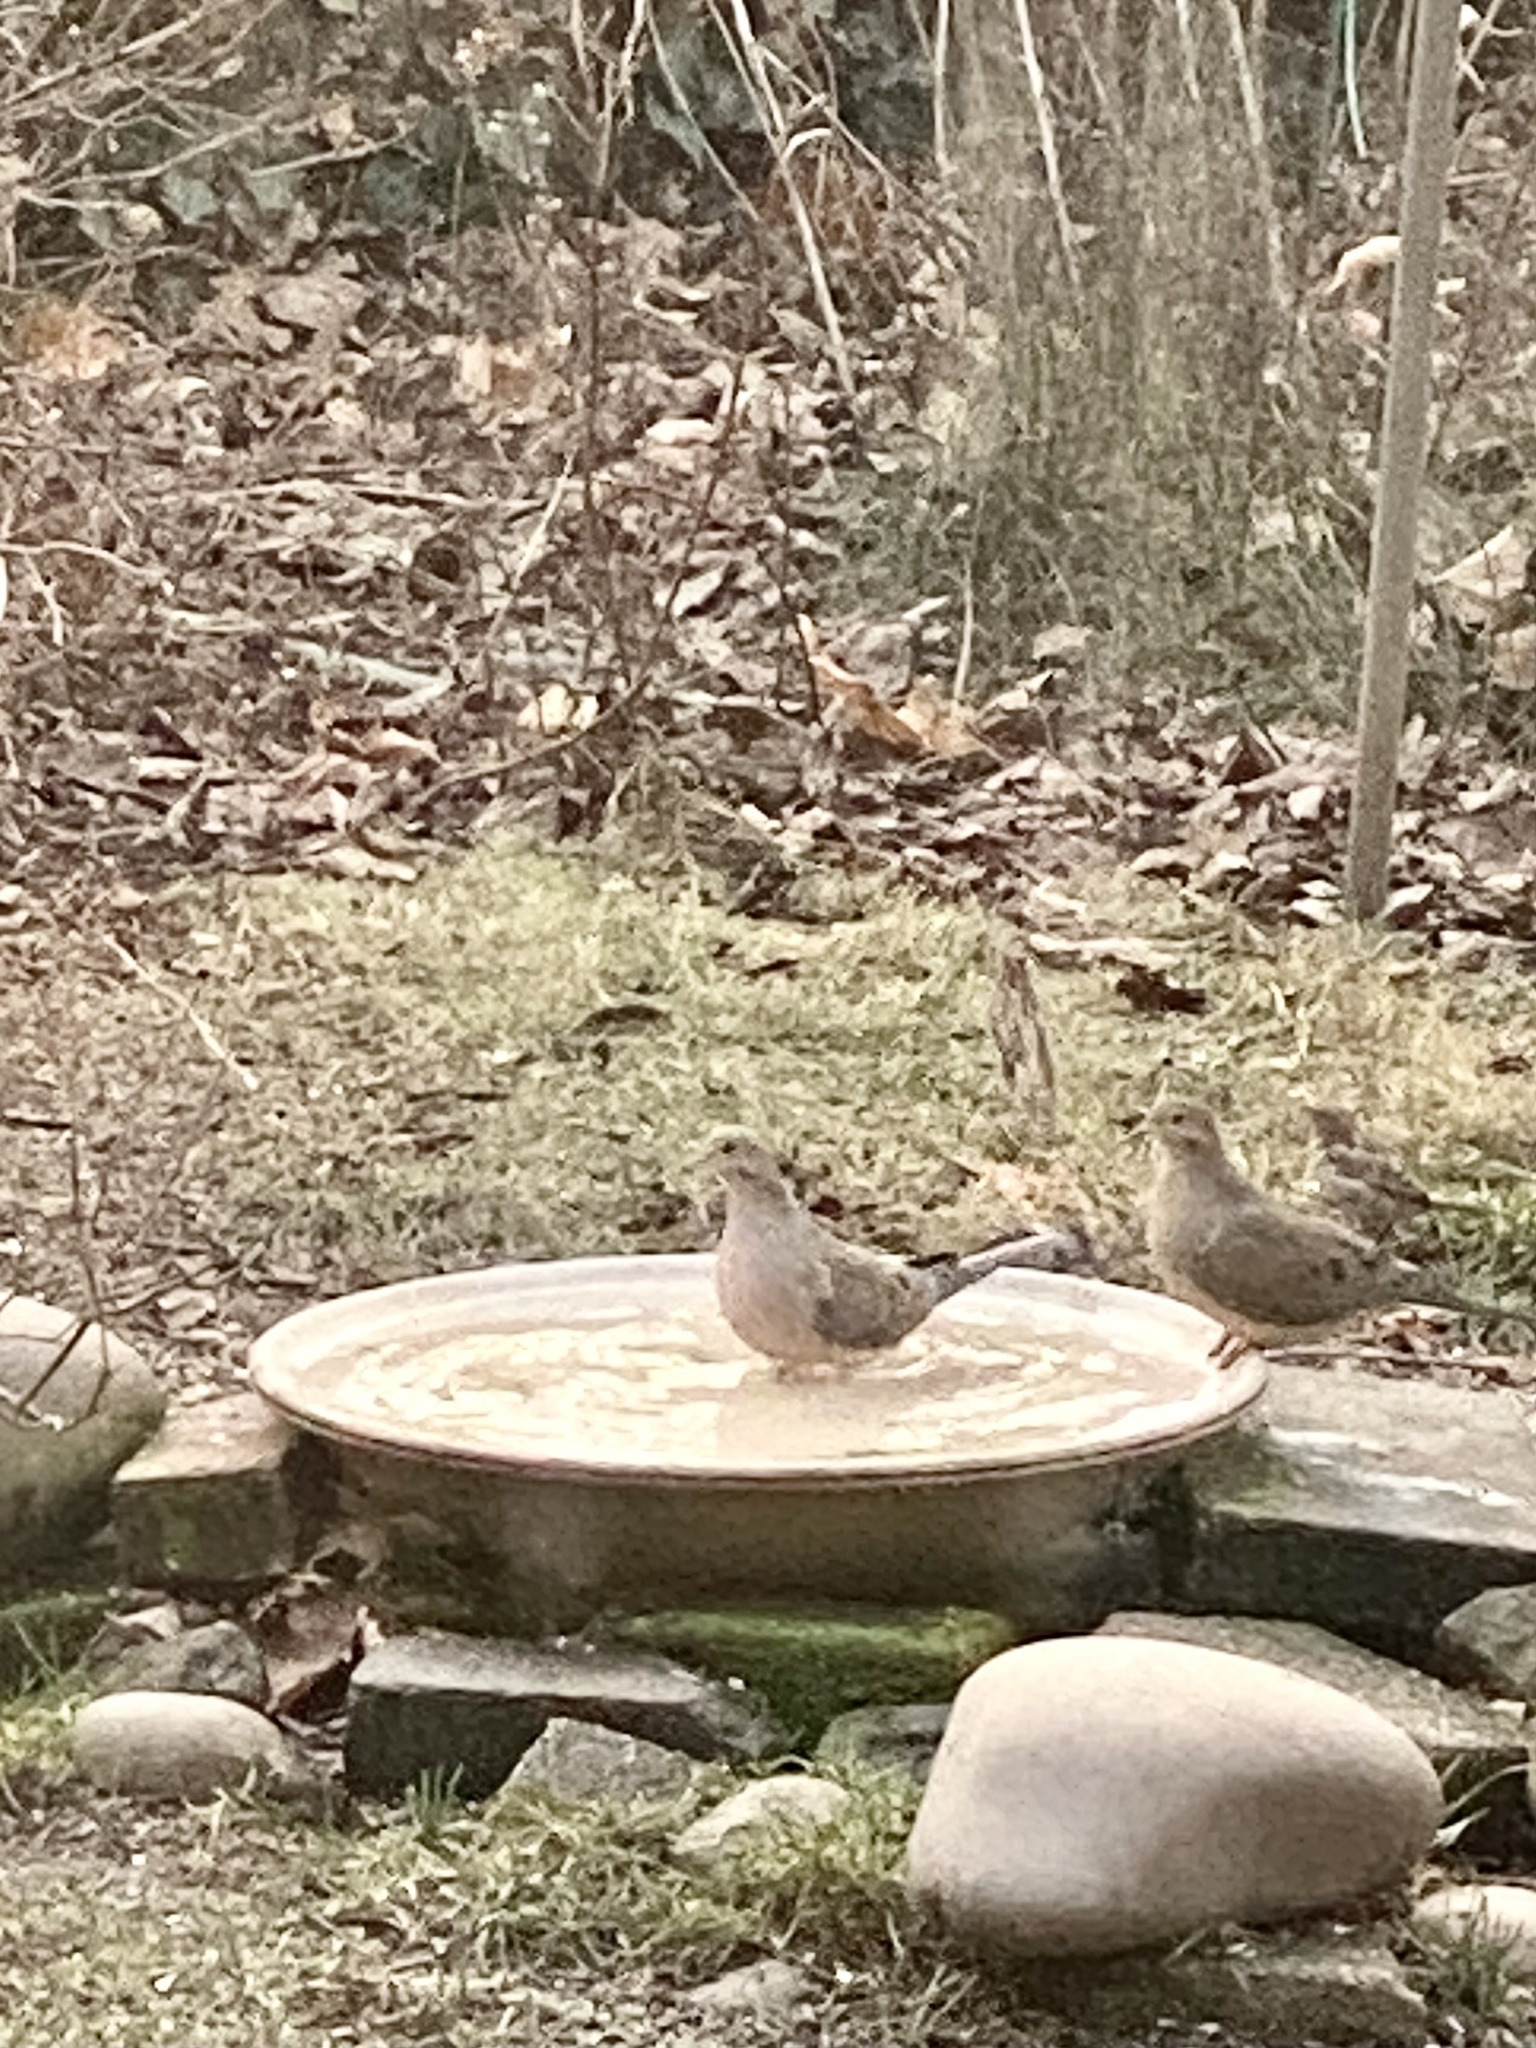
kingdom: Animalia
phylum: Chordata
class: Aves
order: Columbiformes
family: Columbidae
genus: Zenaida
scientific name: Zenaida macroura
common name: Mourning dove
